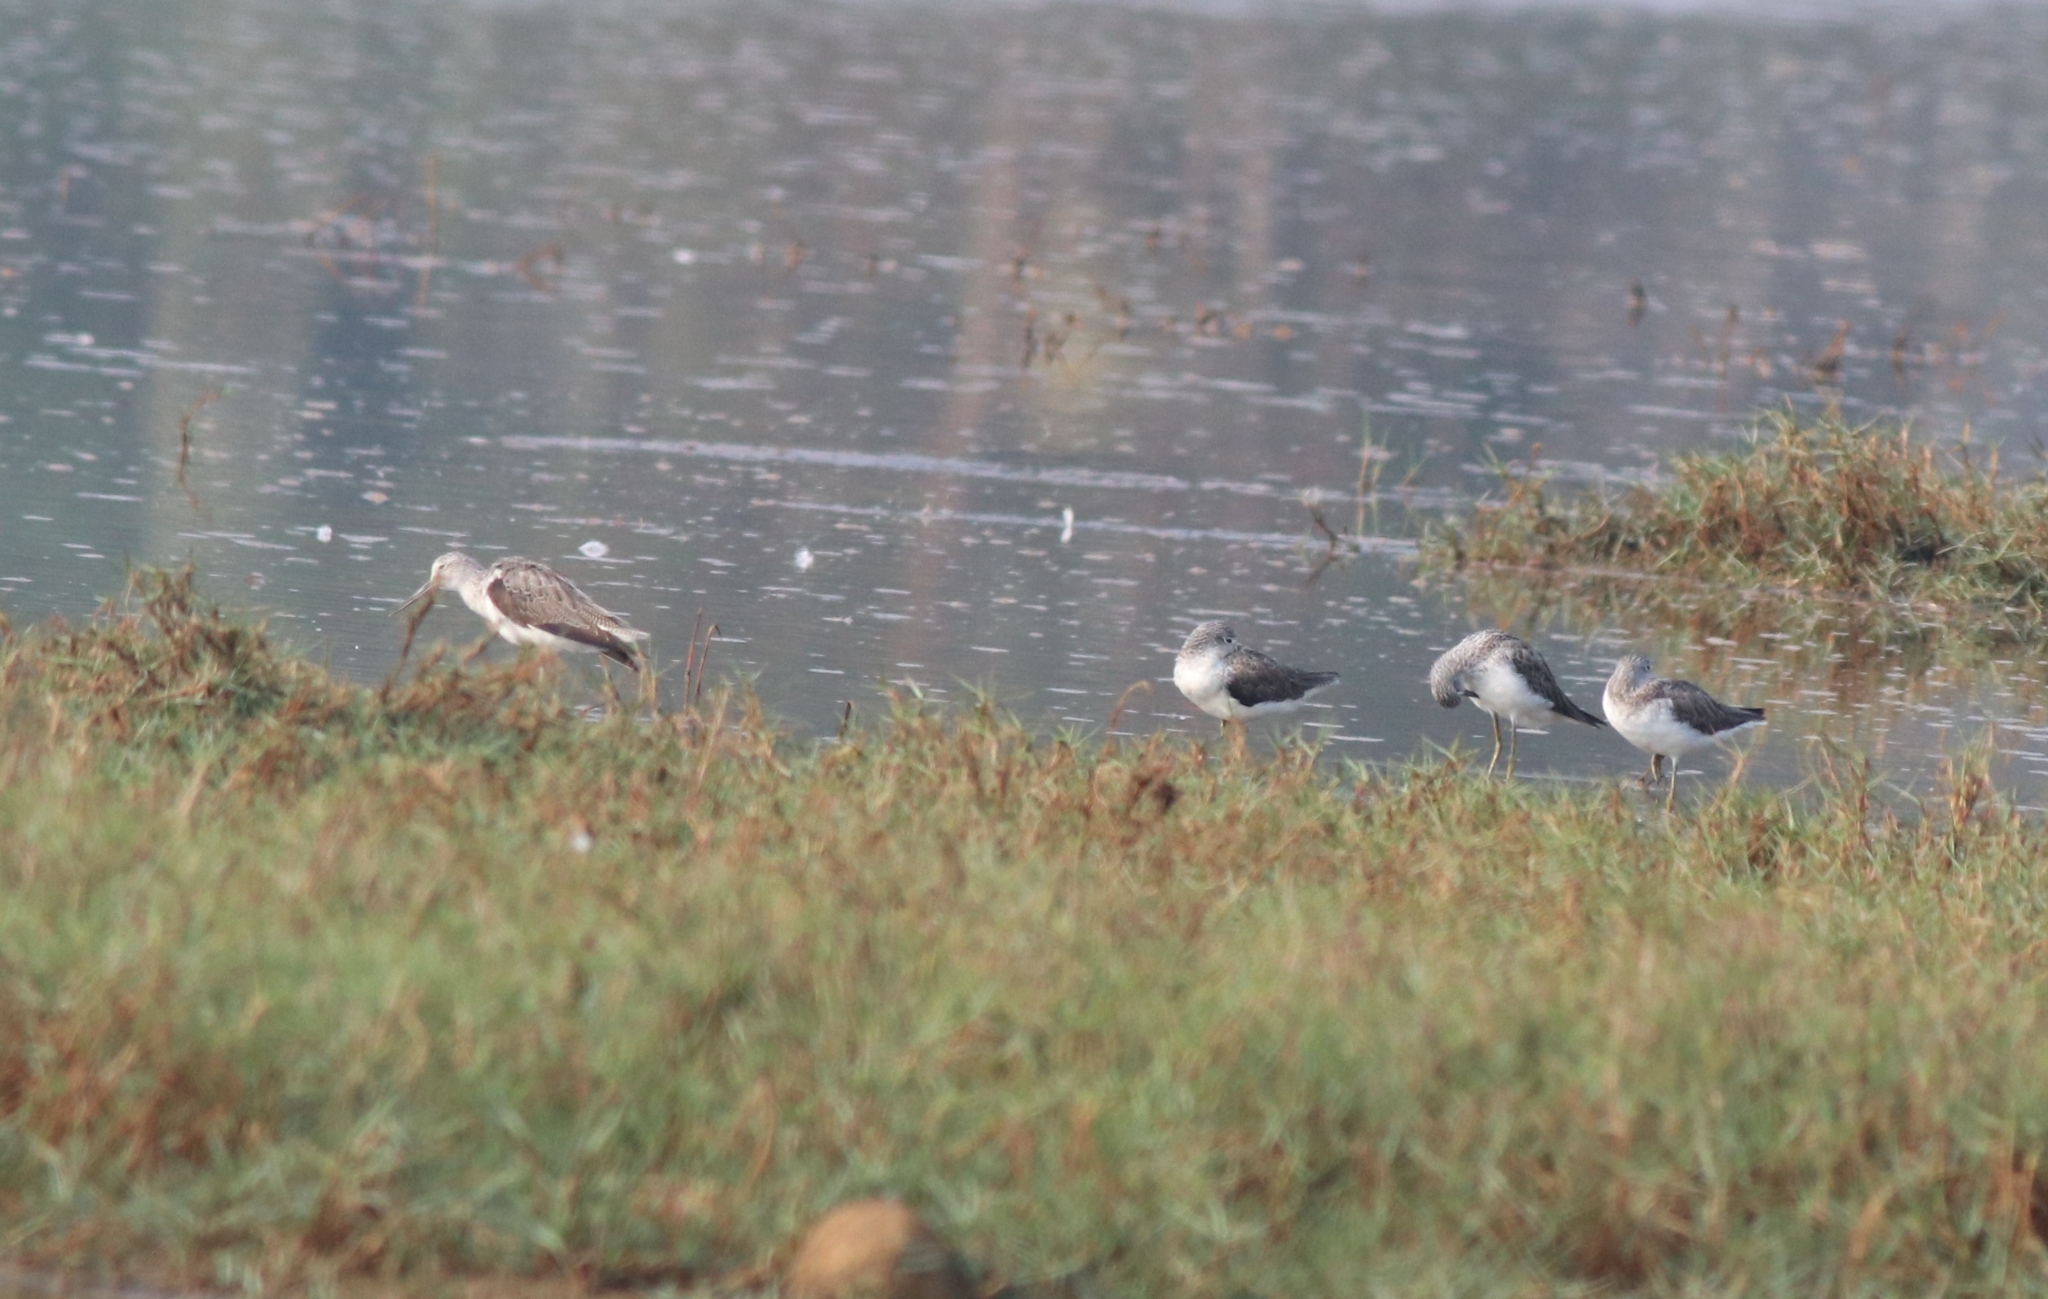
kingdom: Animalia
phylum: Chordata
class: Aves
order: Charadriiformes
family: Scolopacidae
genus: Tringa
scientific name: Tringa nebularia
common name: Common greenshank
